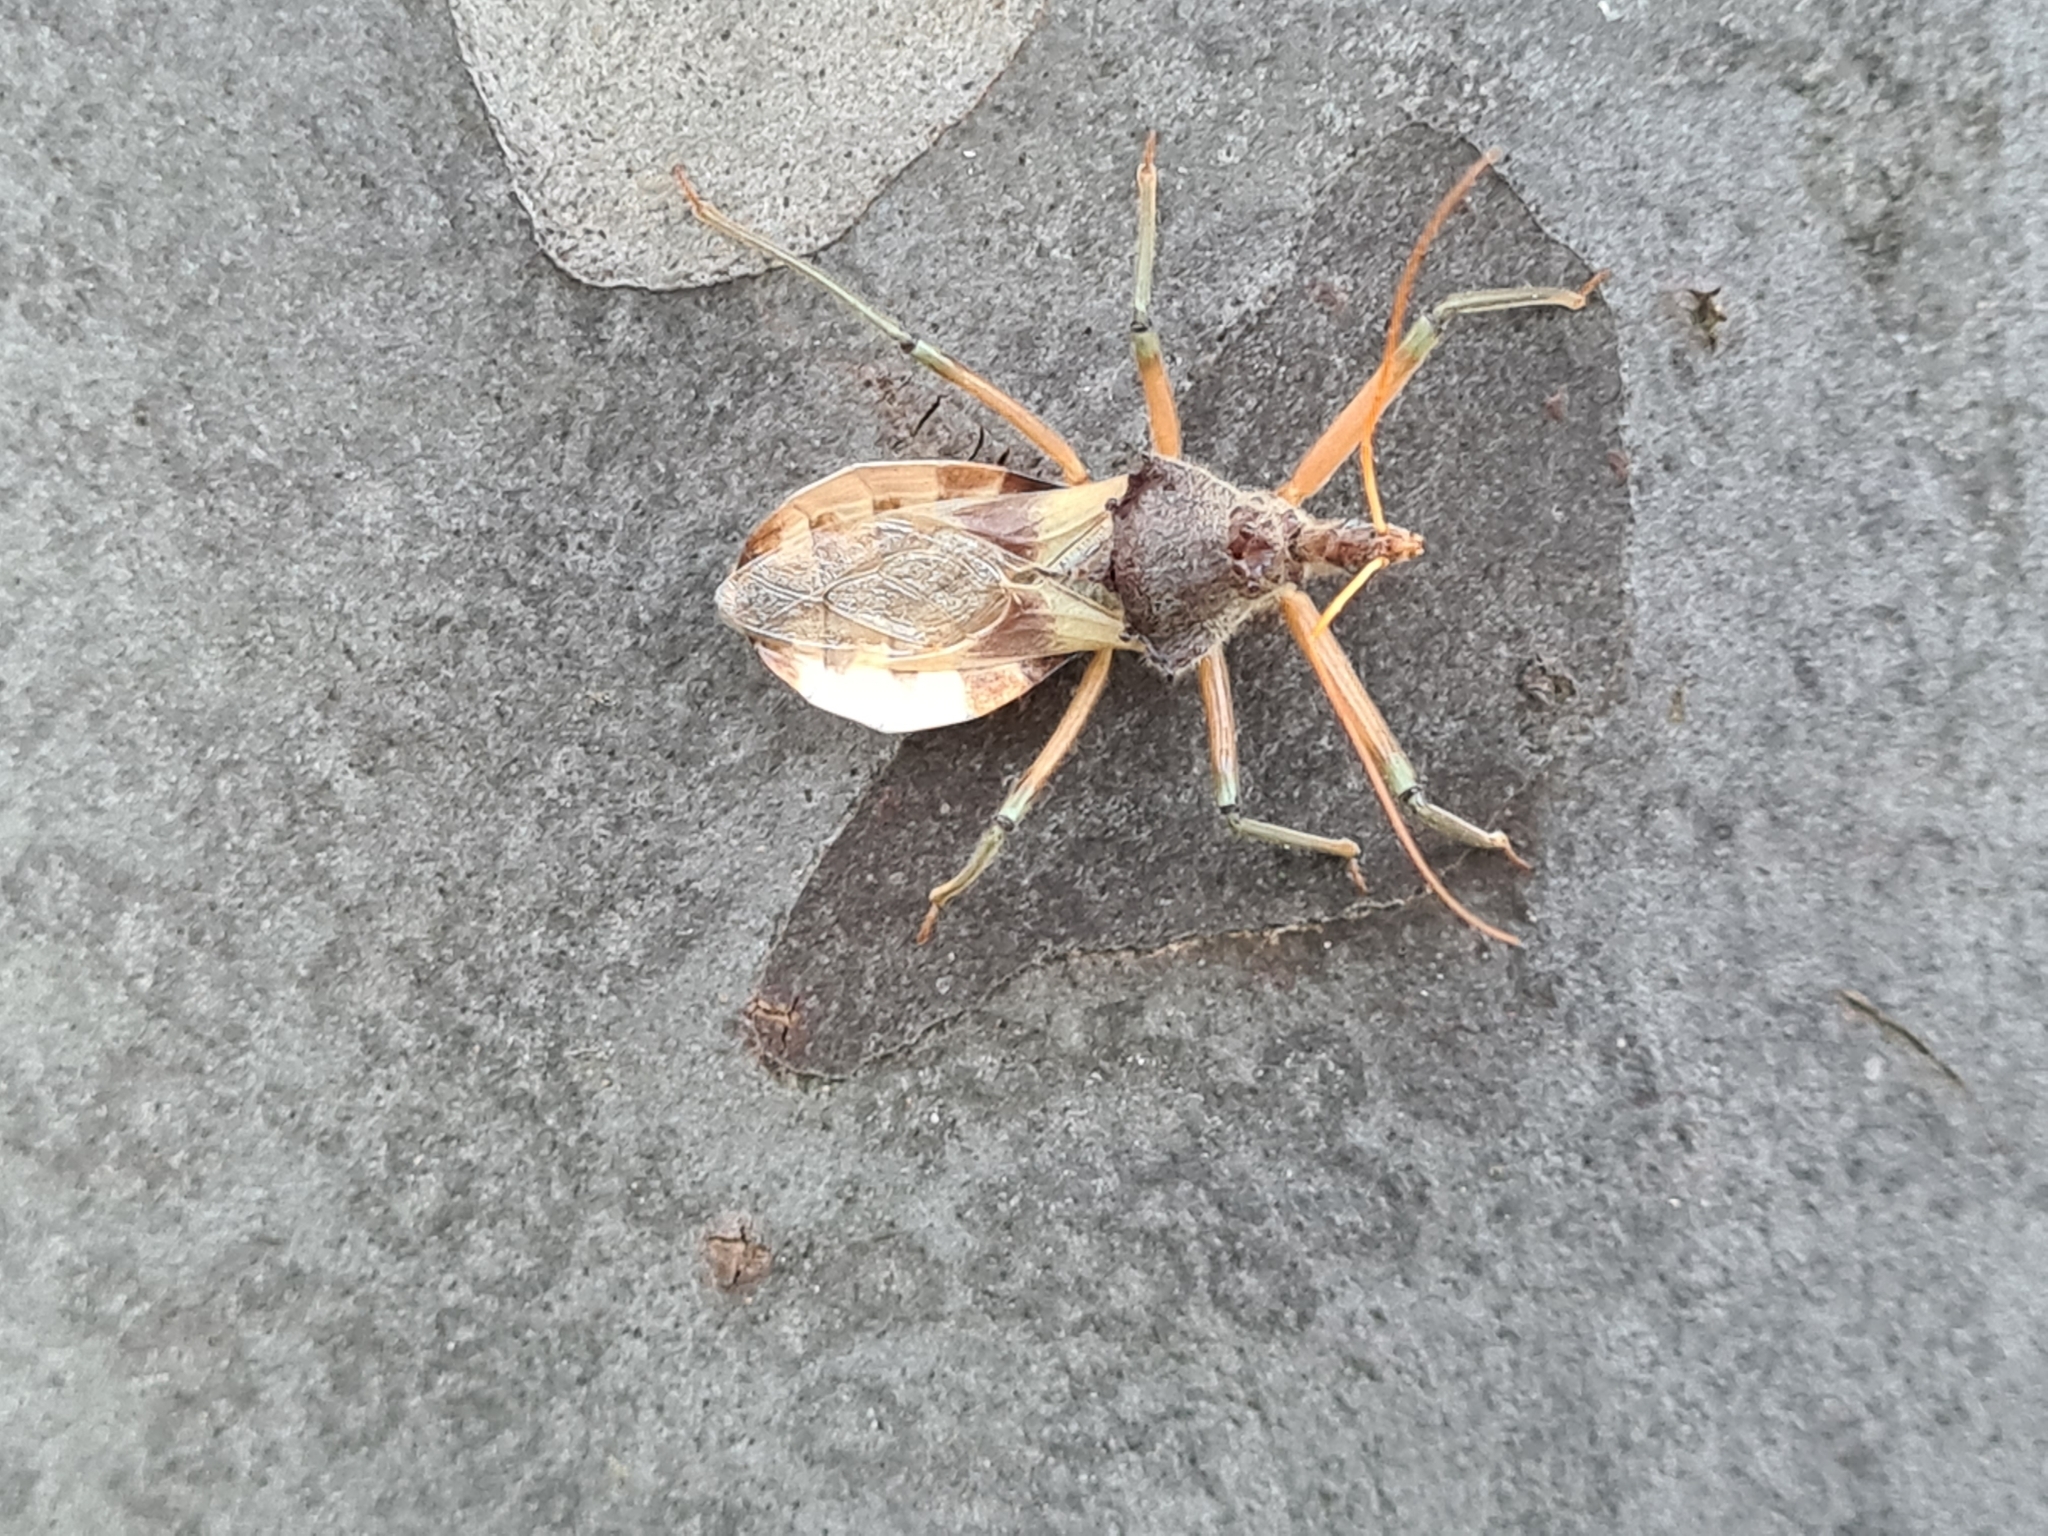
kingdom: Animalia
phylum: Arthropoda
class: Insecta
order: Hemiptera
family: Reduviidae
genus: Pristhesancus
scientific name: Pristhesancus plagipennis
